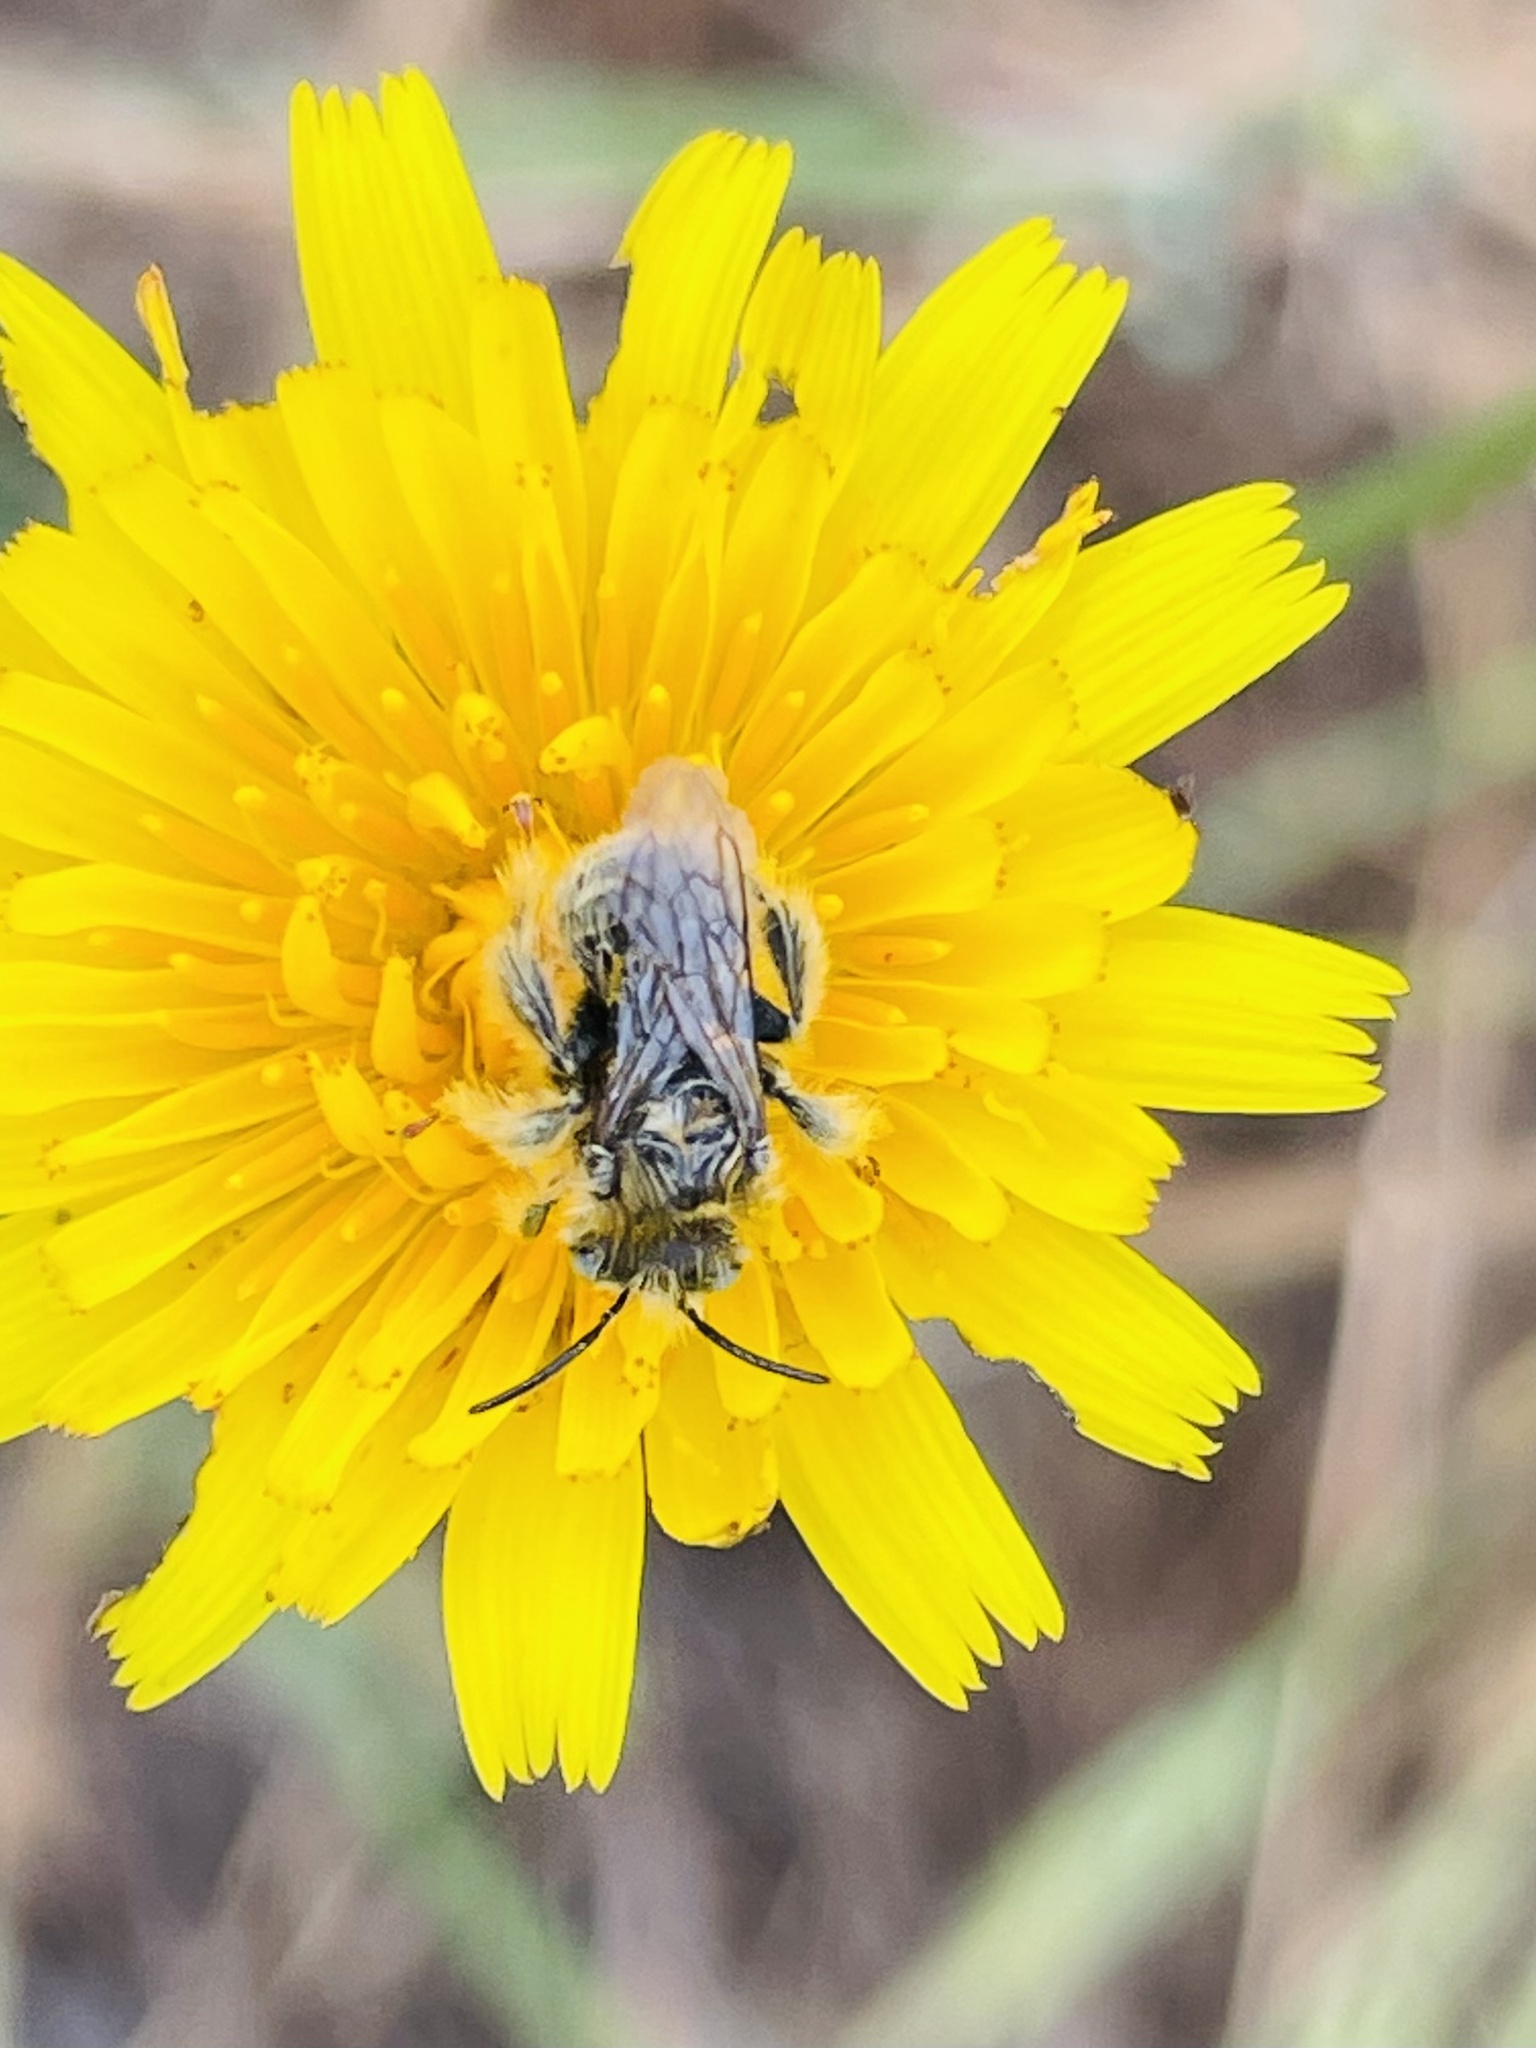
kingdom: Animalia
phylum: Arthropoda
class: Insecta
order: Hymenoptera
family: Apidae
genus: Chalepogenus
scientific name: Chalepogenus herbsti
